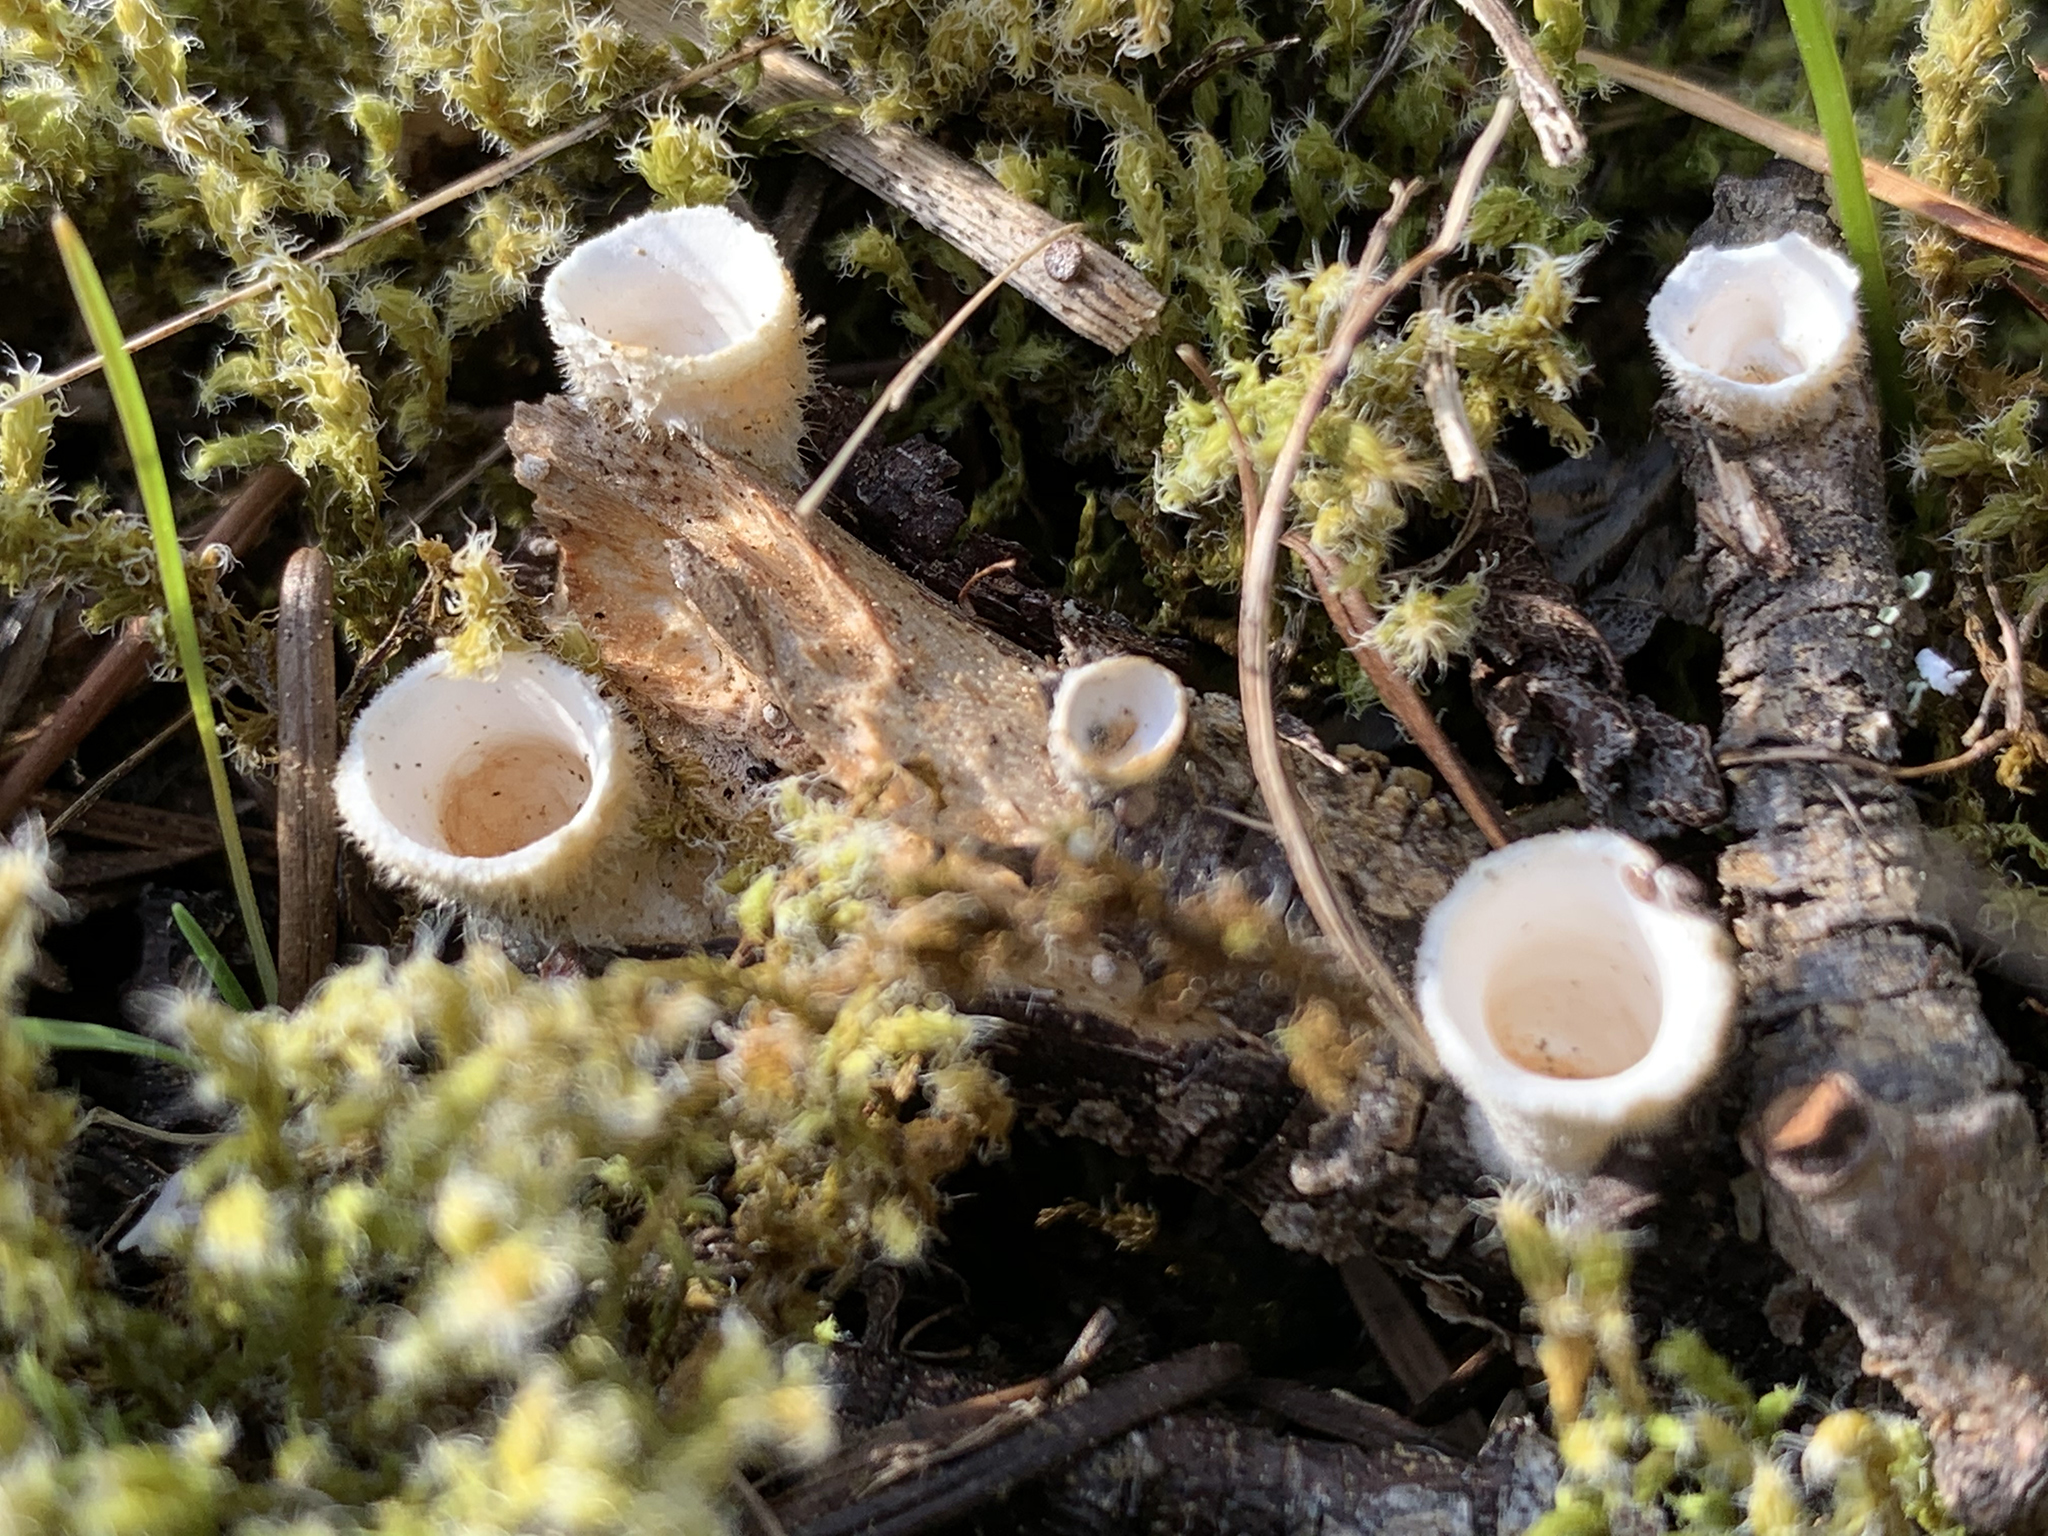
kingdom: Fungi
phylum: Basidiomycota
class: Agaricomycetes
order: Agaricales
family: Agaricaceae
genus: Nidula
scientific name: Nidula niveotomentosa
